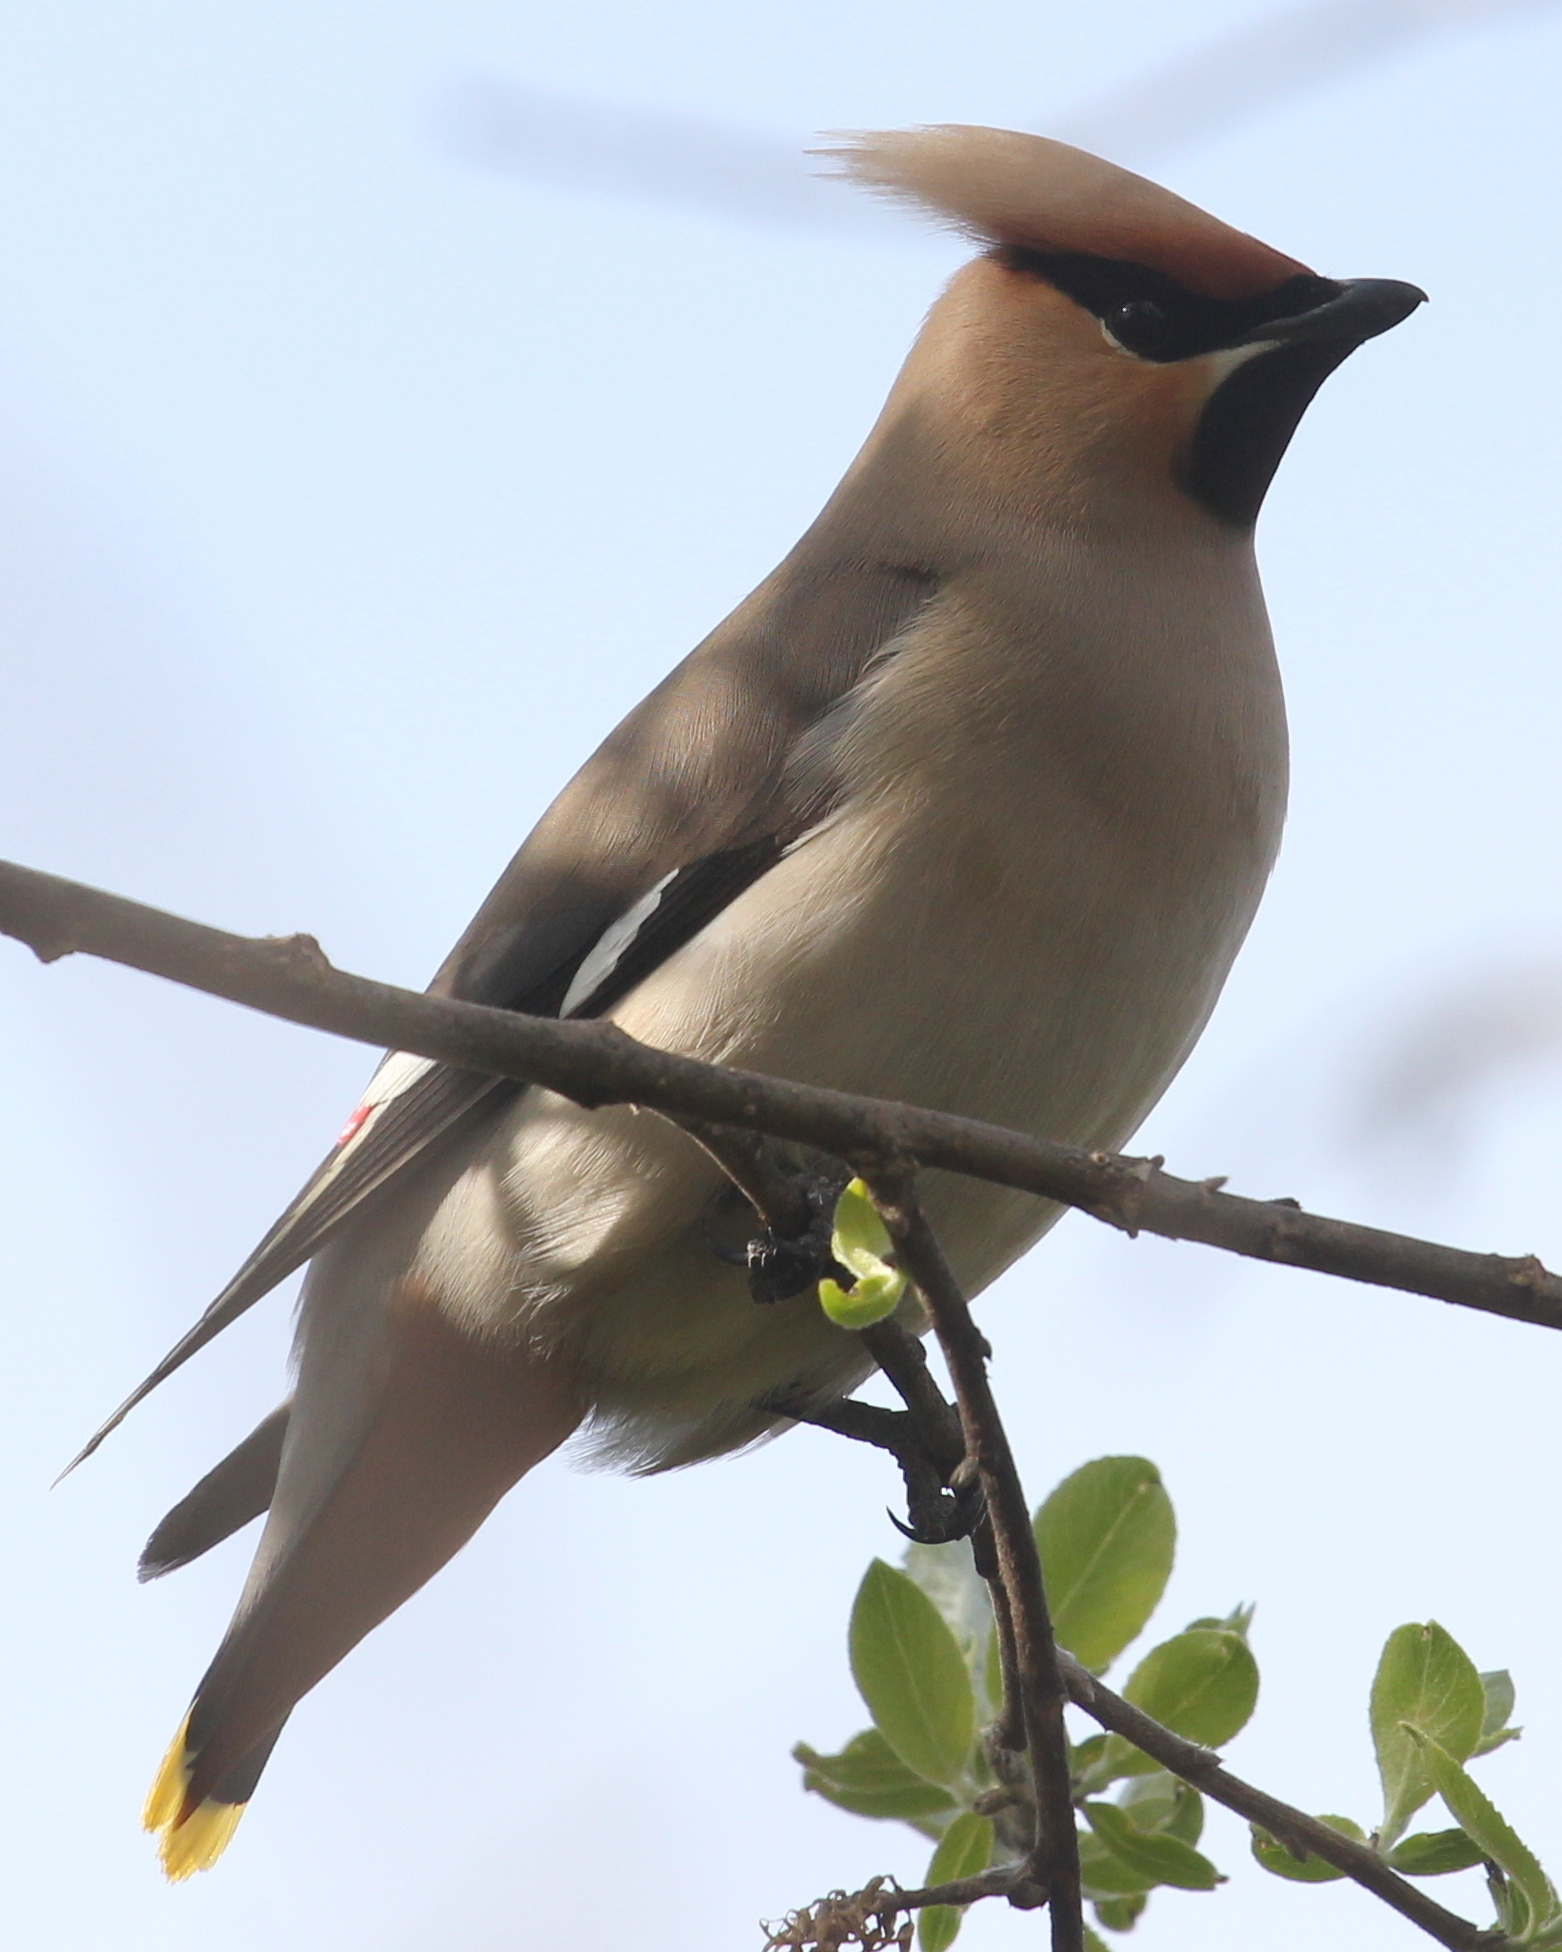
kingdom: Animalia
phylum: Chordata
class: Aves
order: Passeriformes
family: Bombycillidae
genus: Bombycilla
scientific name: Bombycilla garrulus
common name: Bohemian waxwing
